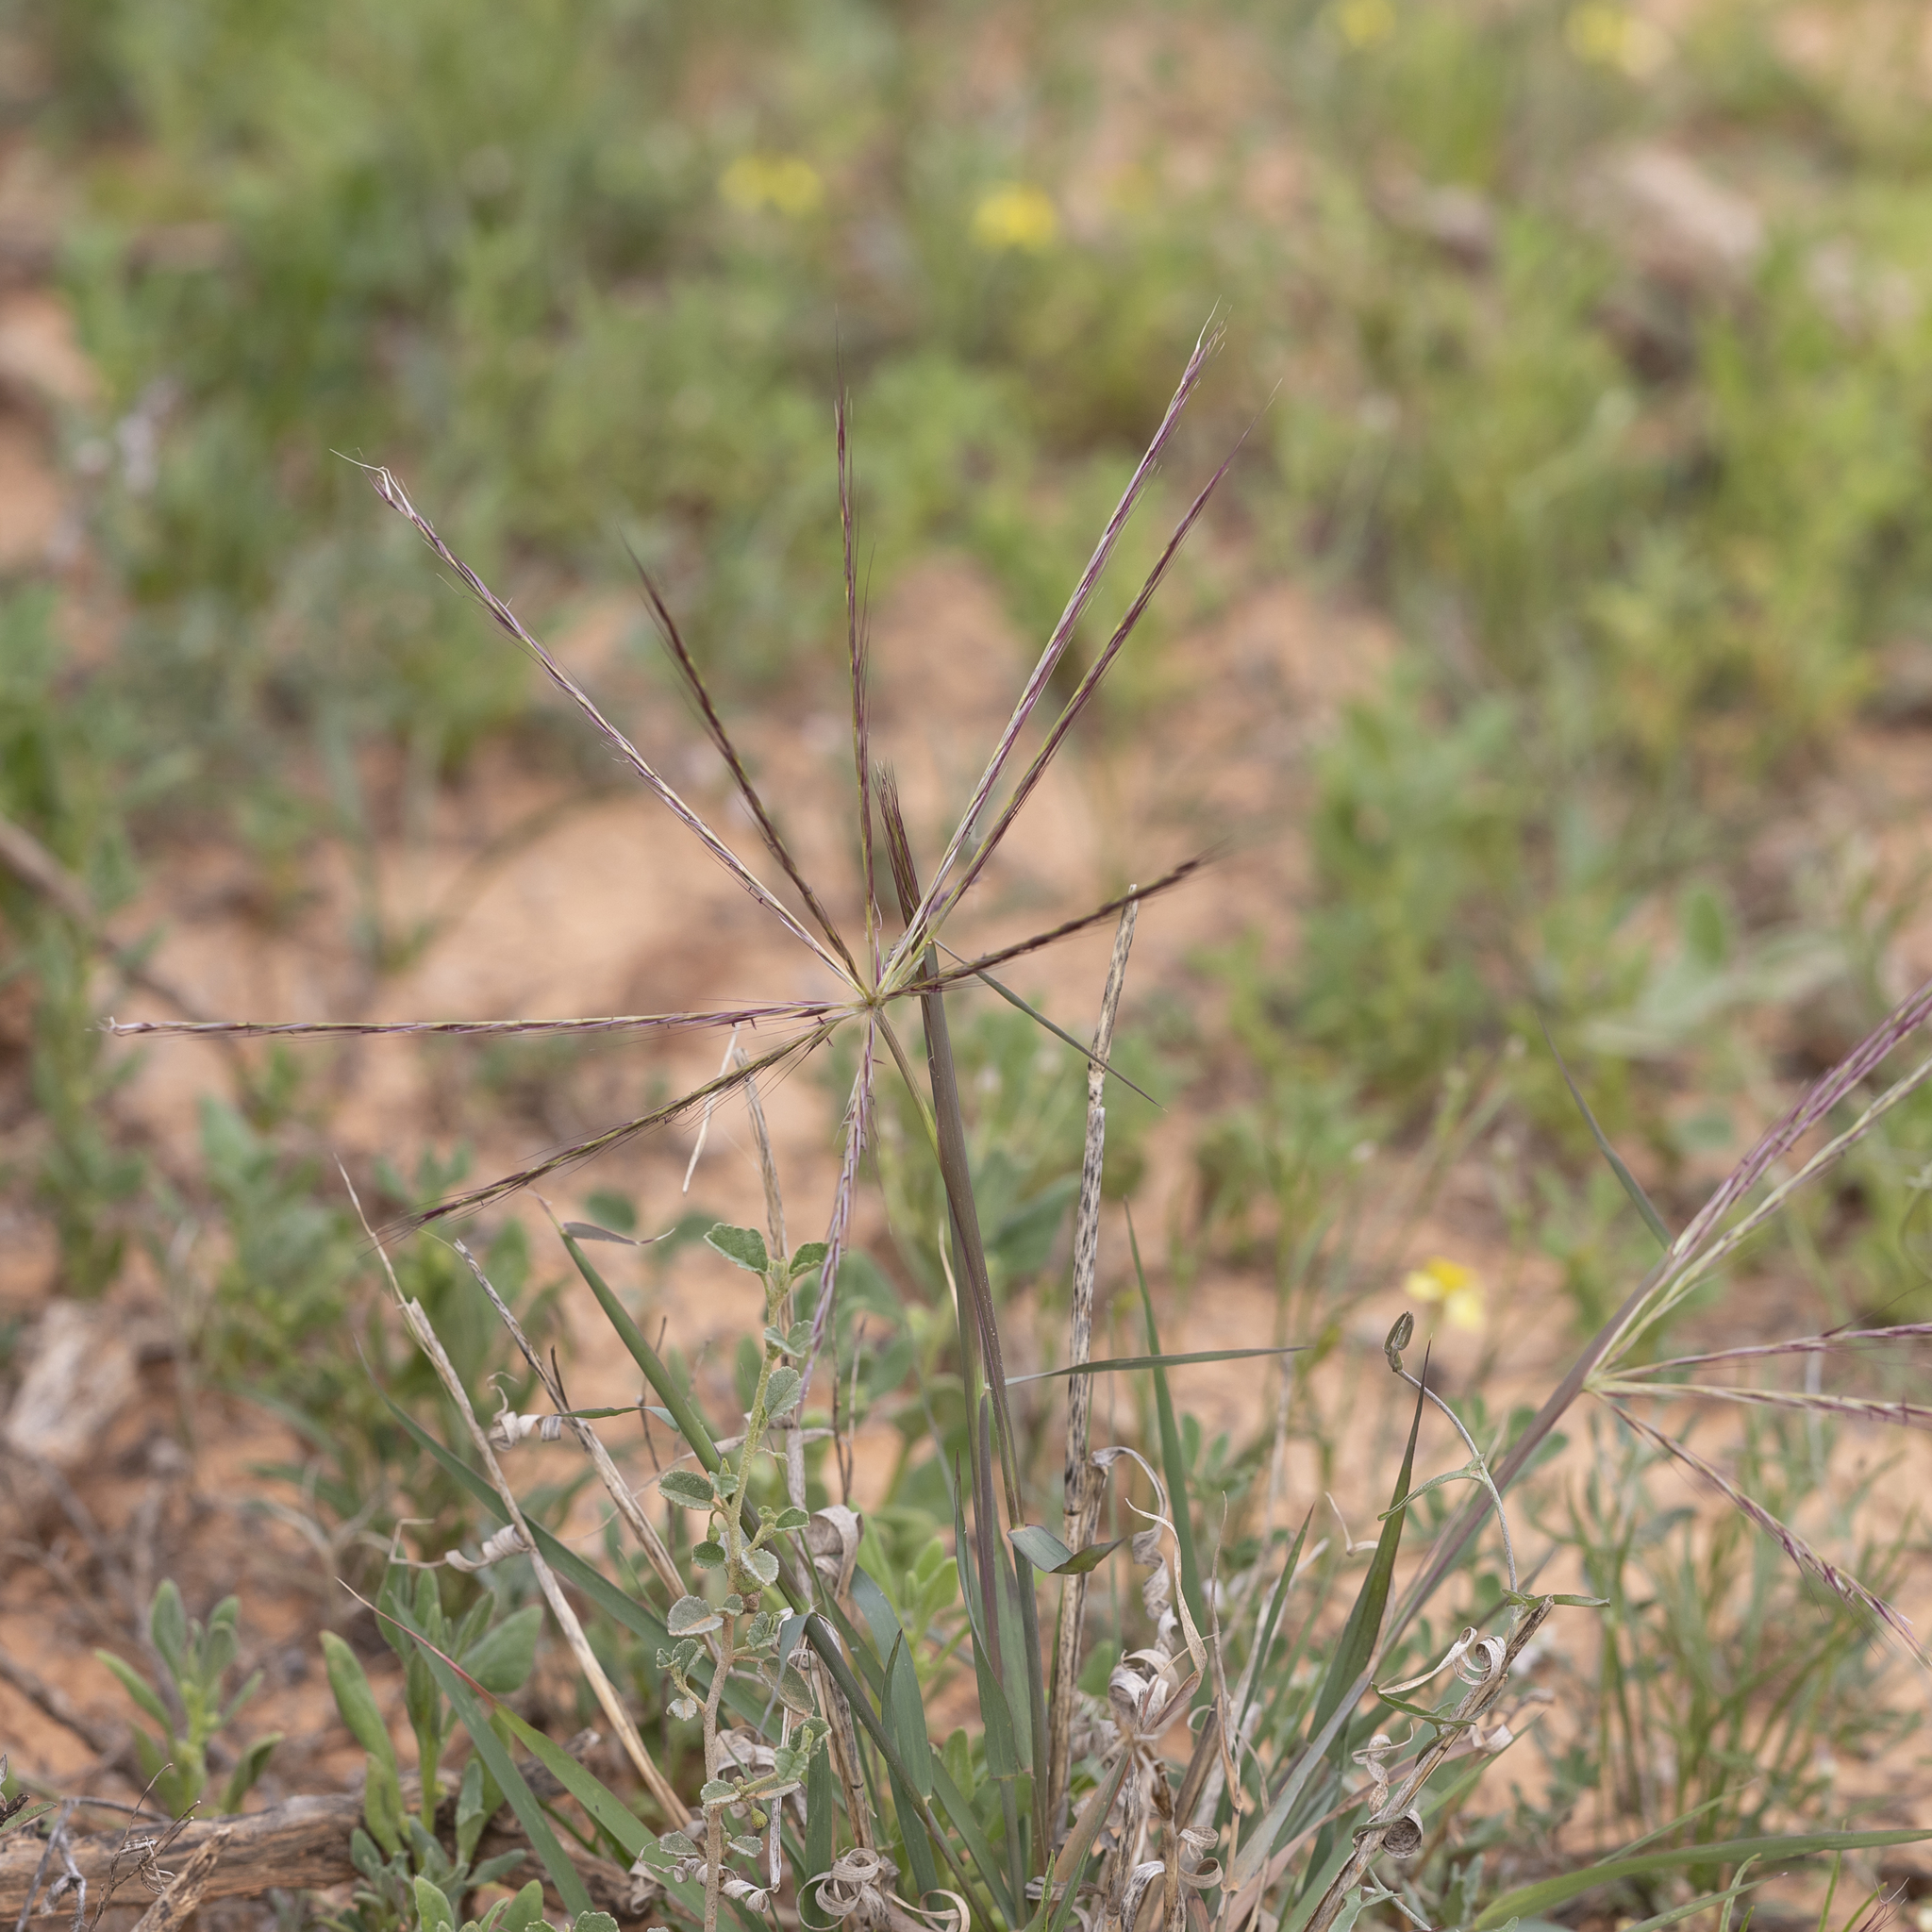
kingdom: Plantae
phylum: Tracheophyta
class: Liliopsida
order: Poales
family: Poaceae
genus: Enteropogon
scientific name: Enteropogon acicularis
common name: Curly windmill grass
